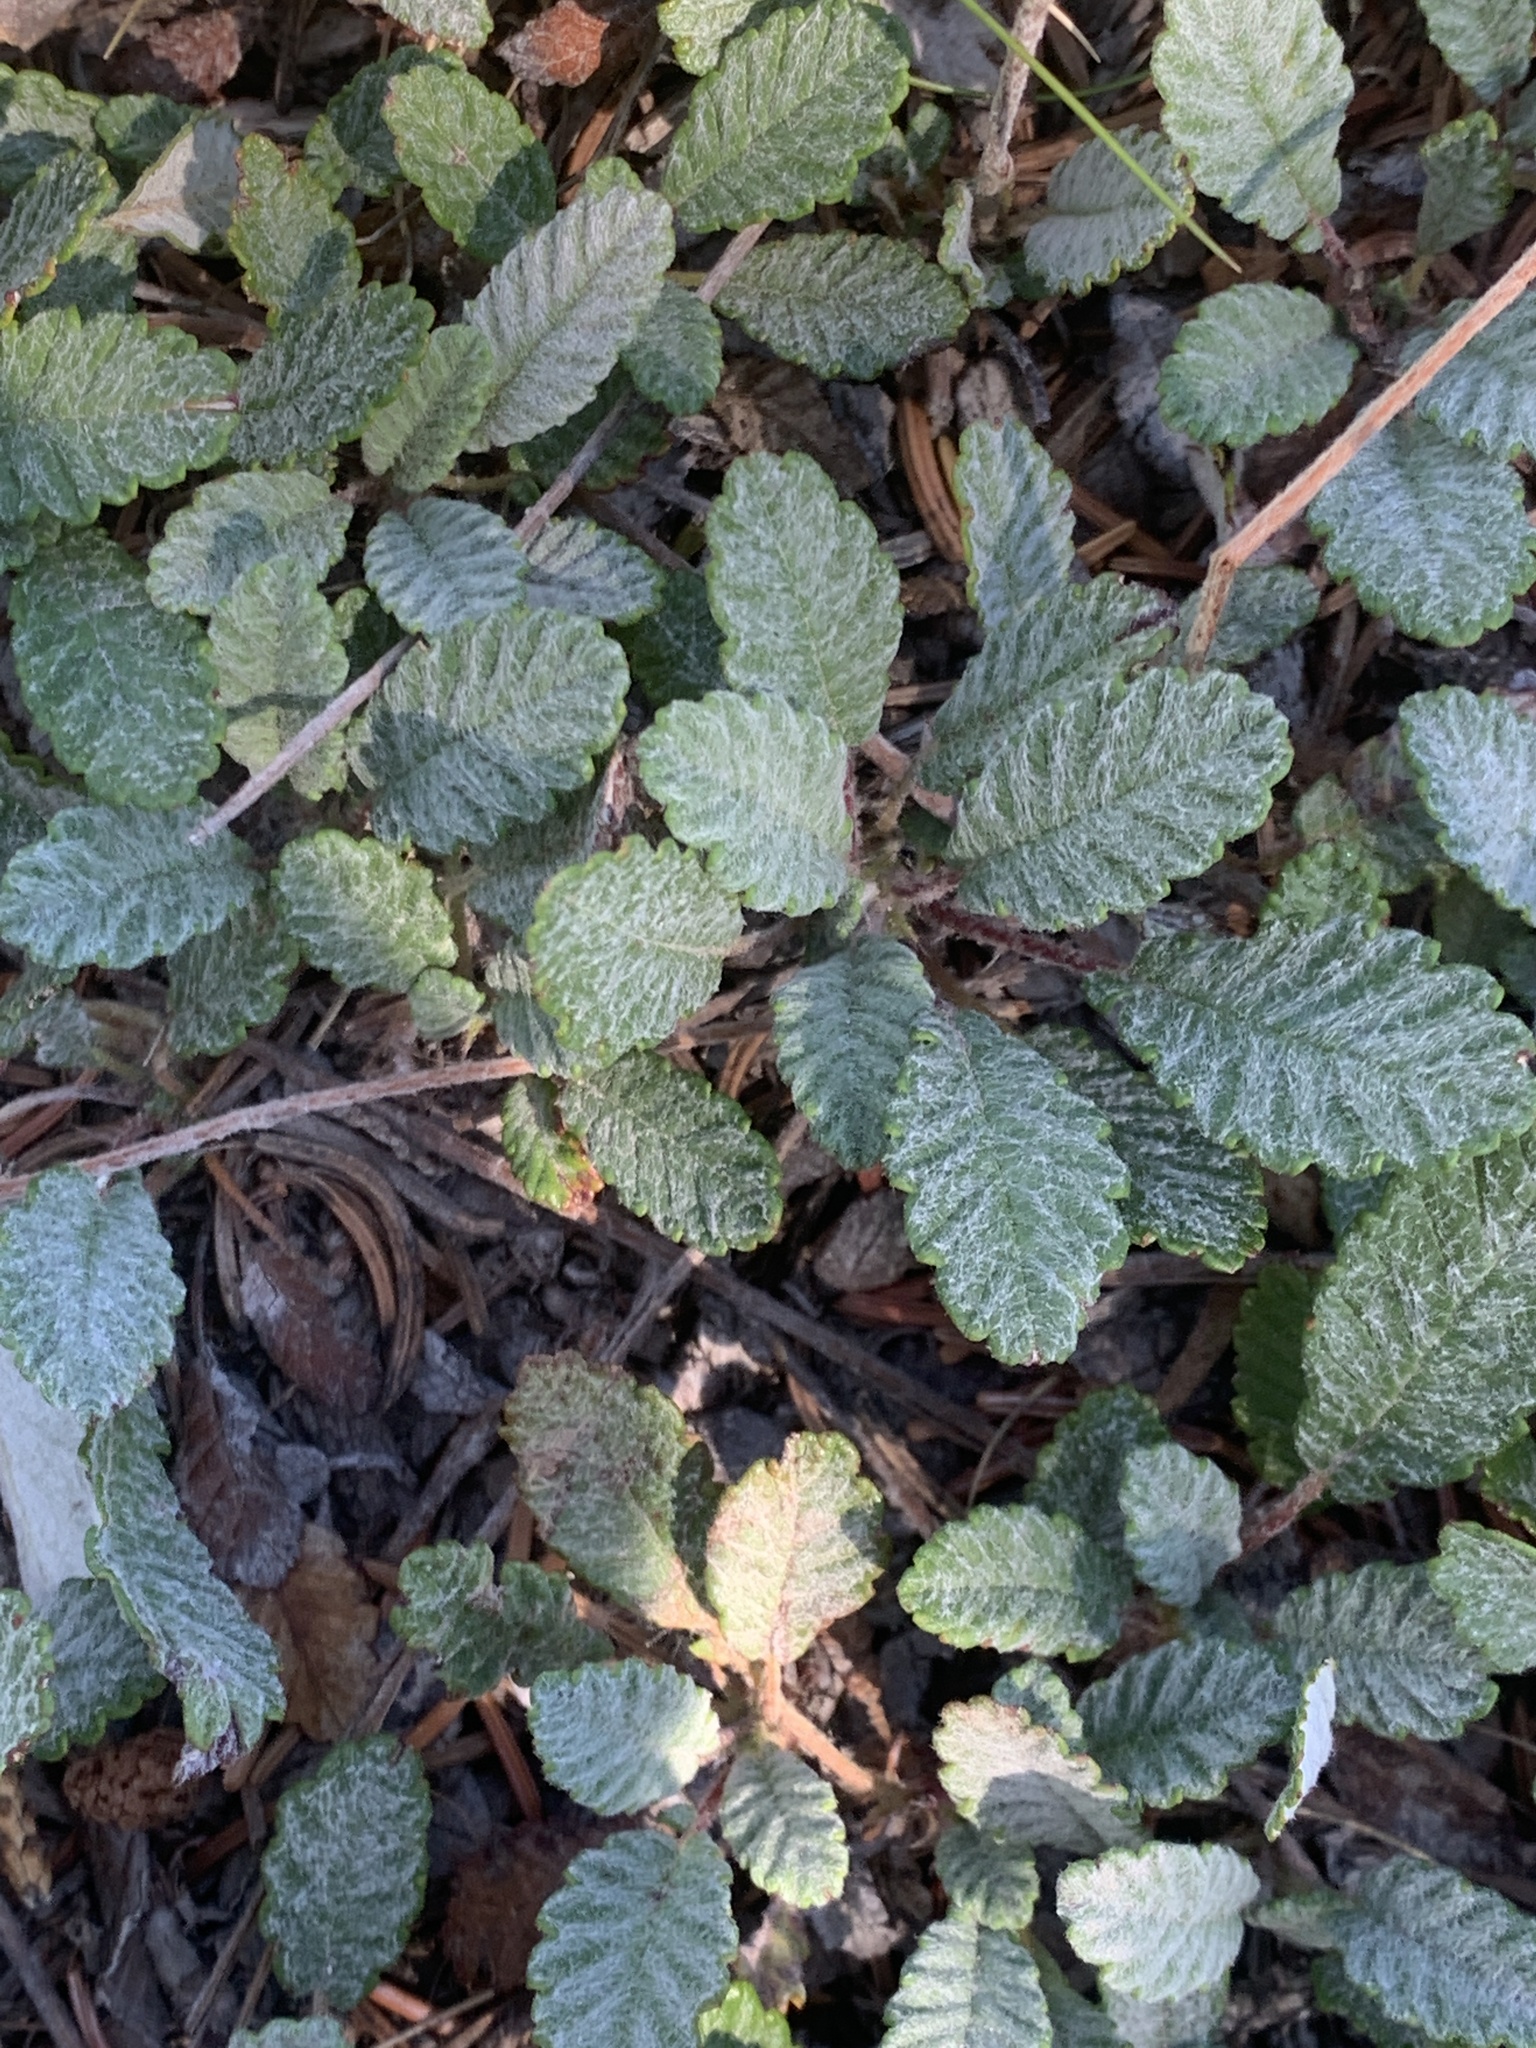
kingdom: Plantae
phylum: Tracheophyta
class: Magnoliopsida
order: Rosales
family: Rosaceae
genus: Dryas
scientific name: Dryas drummondii
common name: Drummond's dryad
